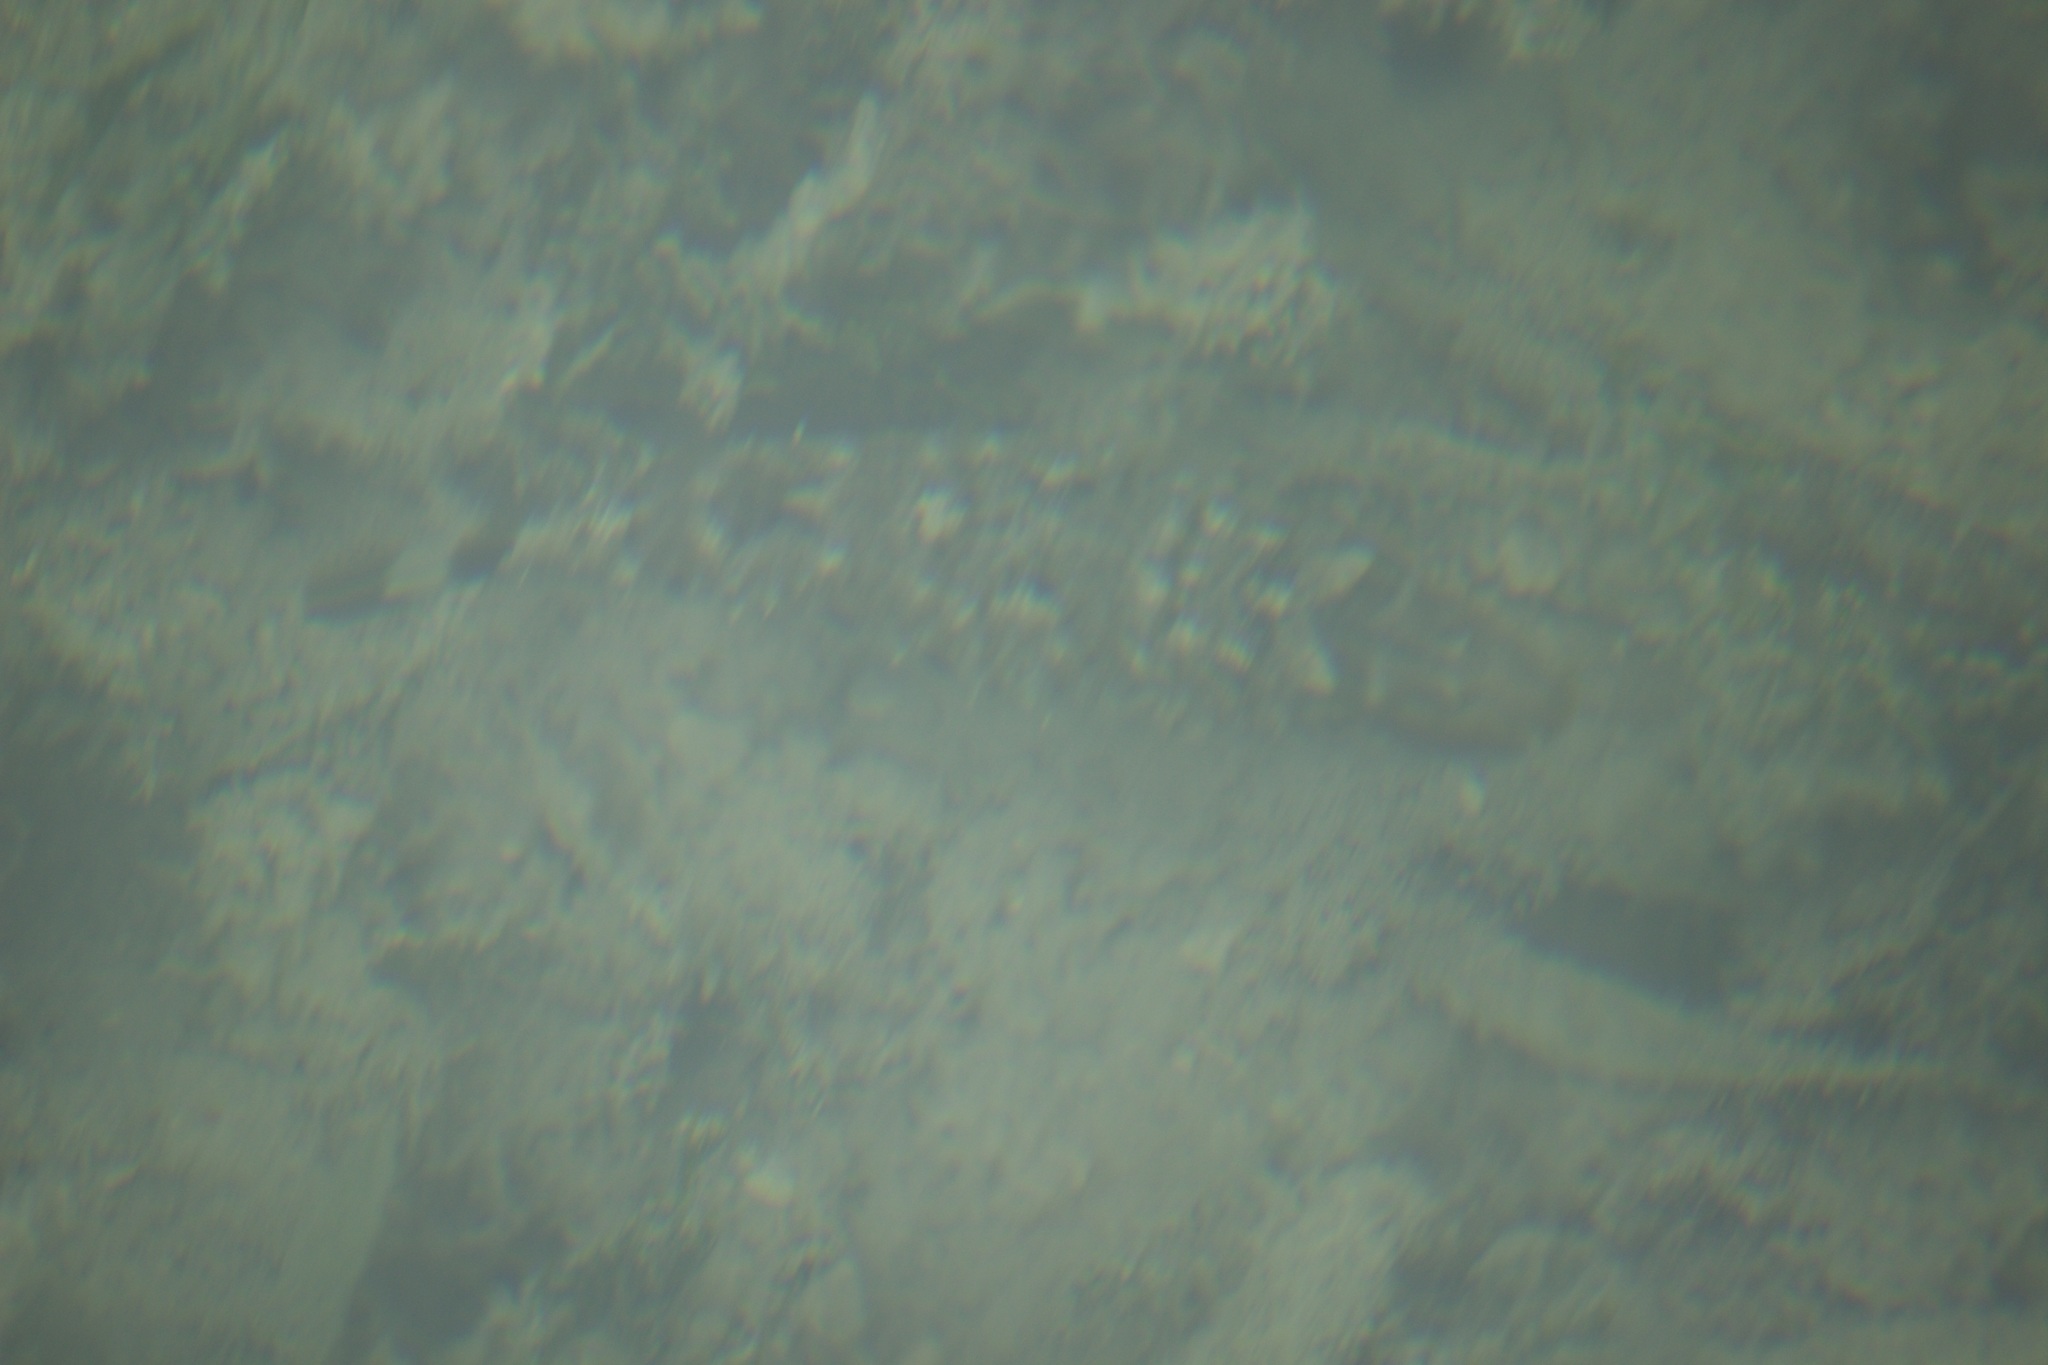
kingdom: Animalia
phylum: Chordata
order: Tetraodontiformes
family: Tetraodontidae
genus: Sphoeroides
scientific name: Sphoeroides
